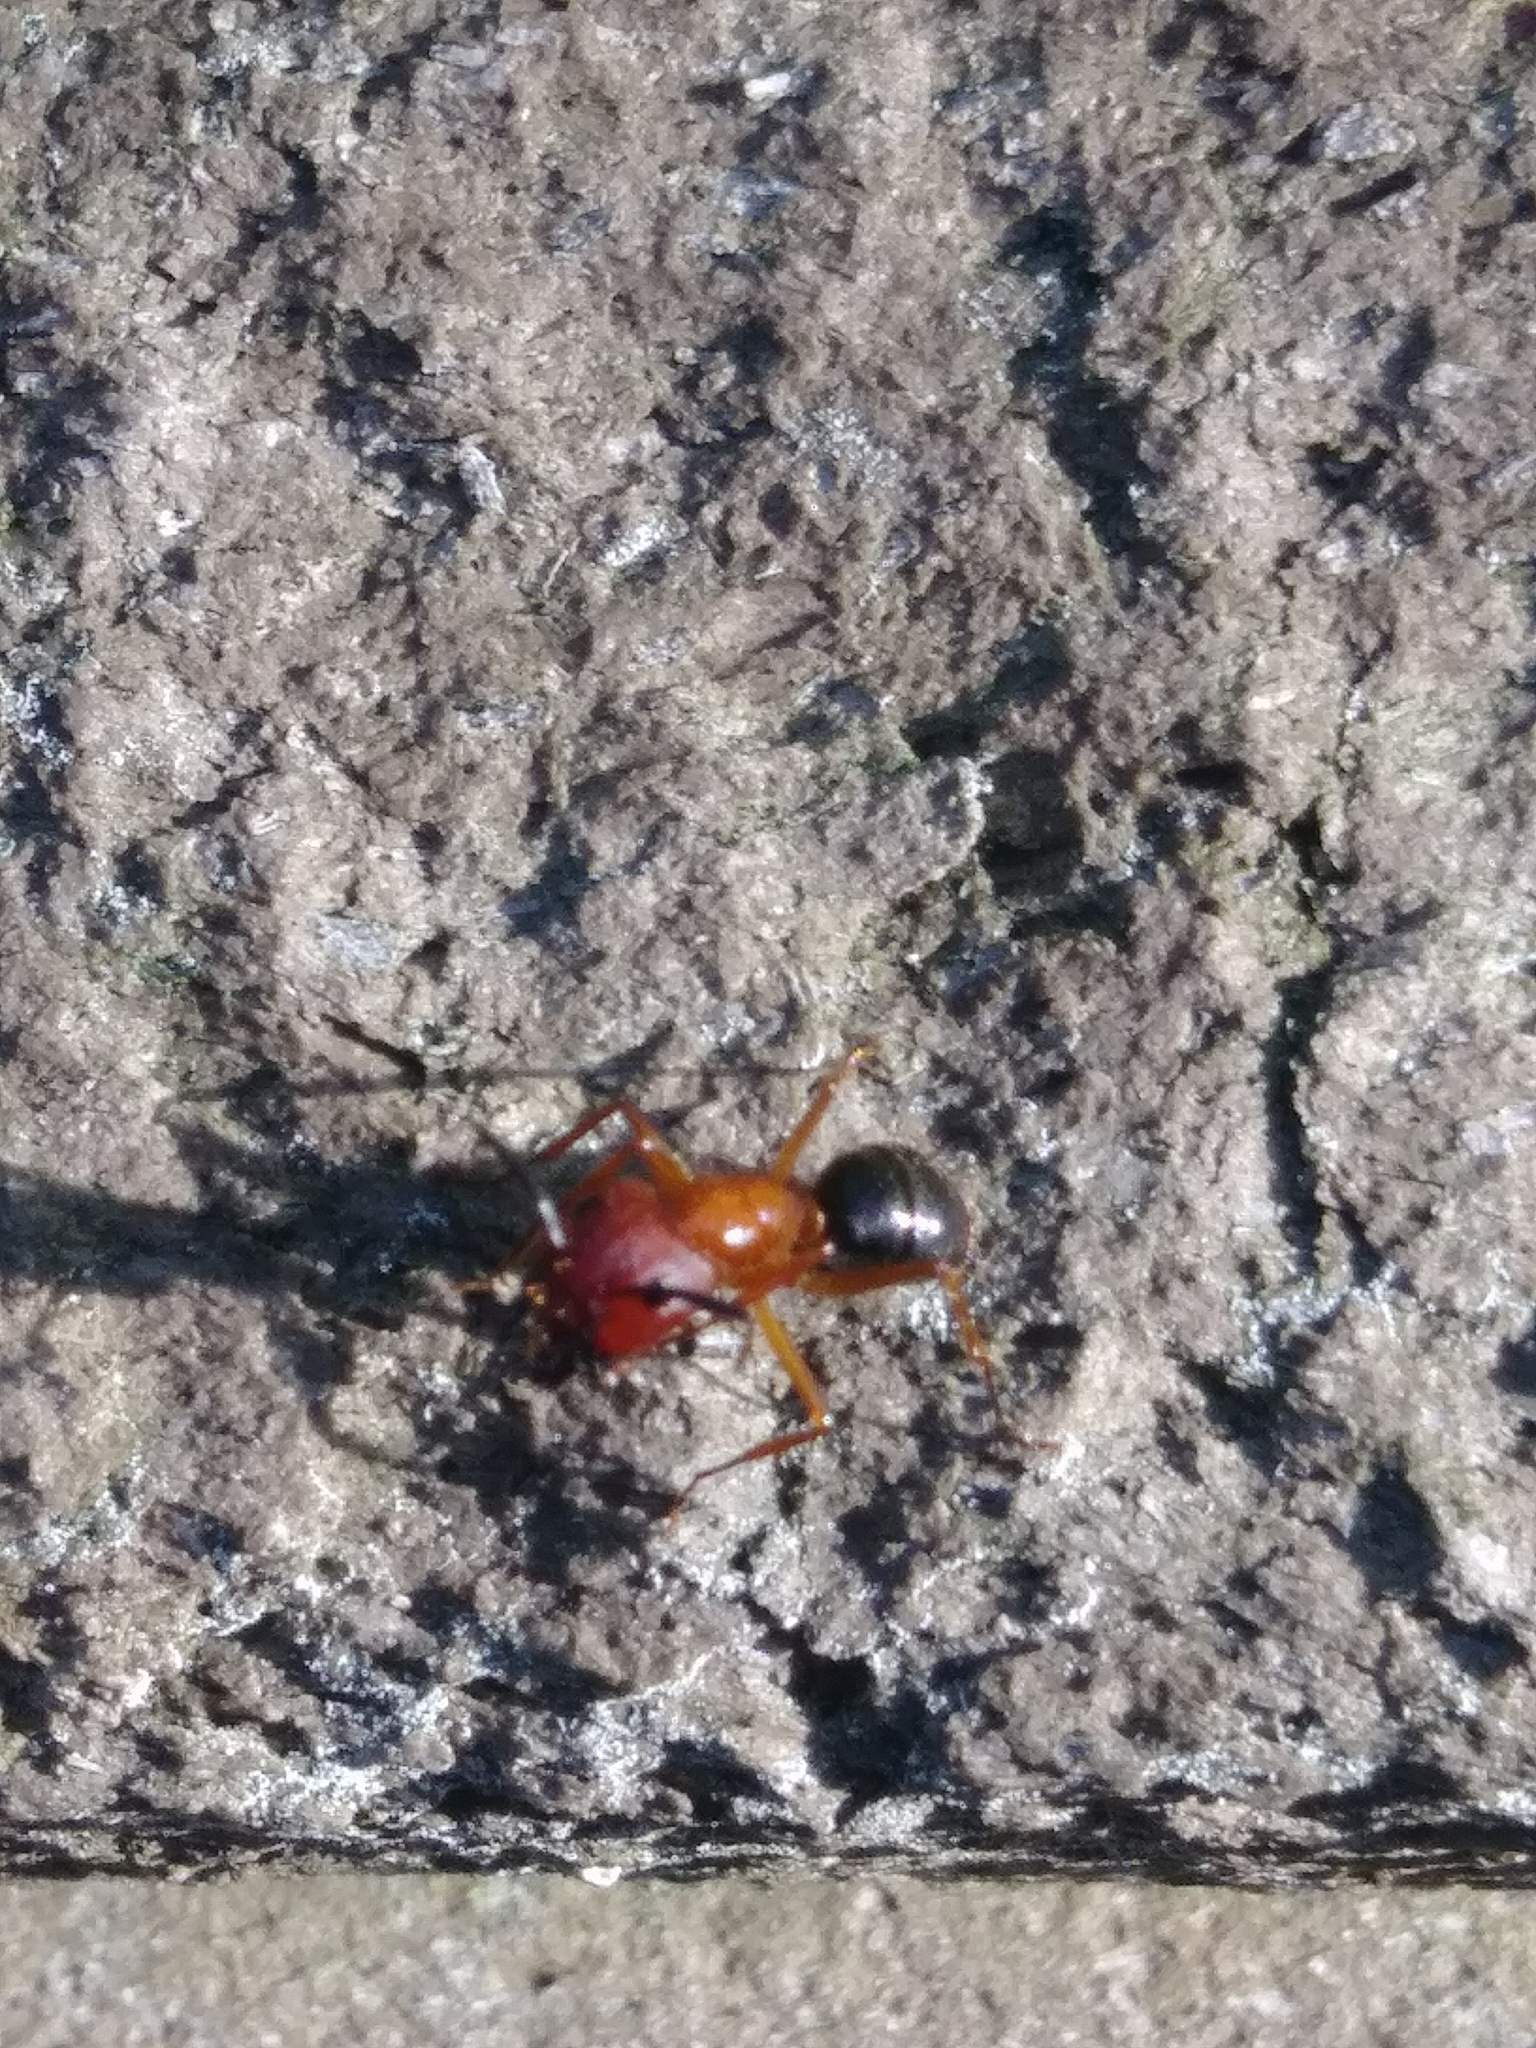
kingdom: Animalia
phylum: Arthropoda
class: Insecta
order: Hymenoptera
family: Formicidae
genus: Camponotus
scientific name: Camponotus floridanus
